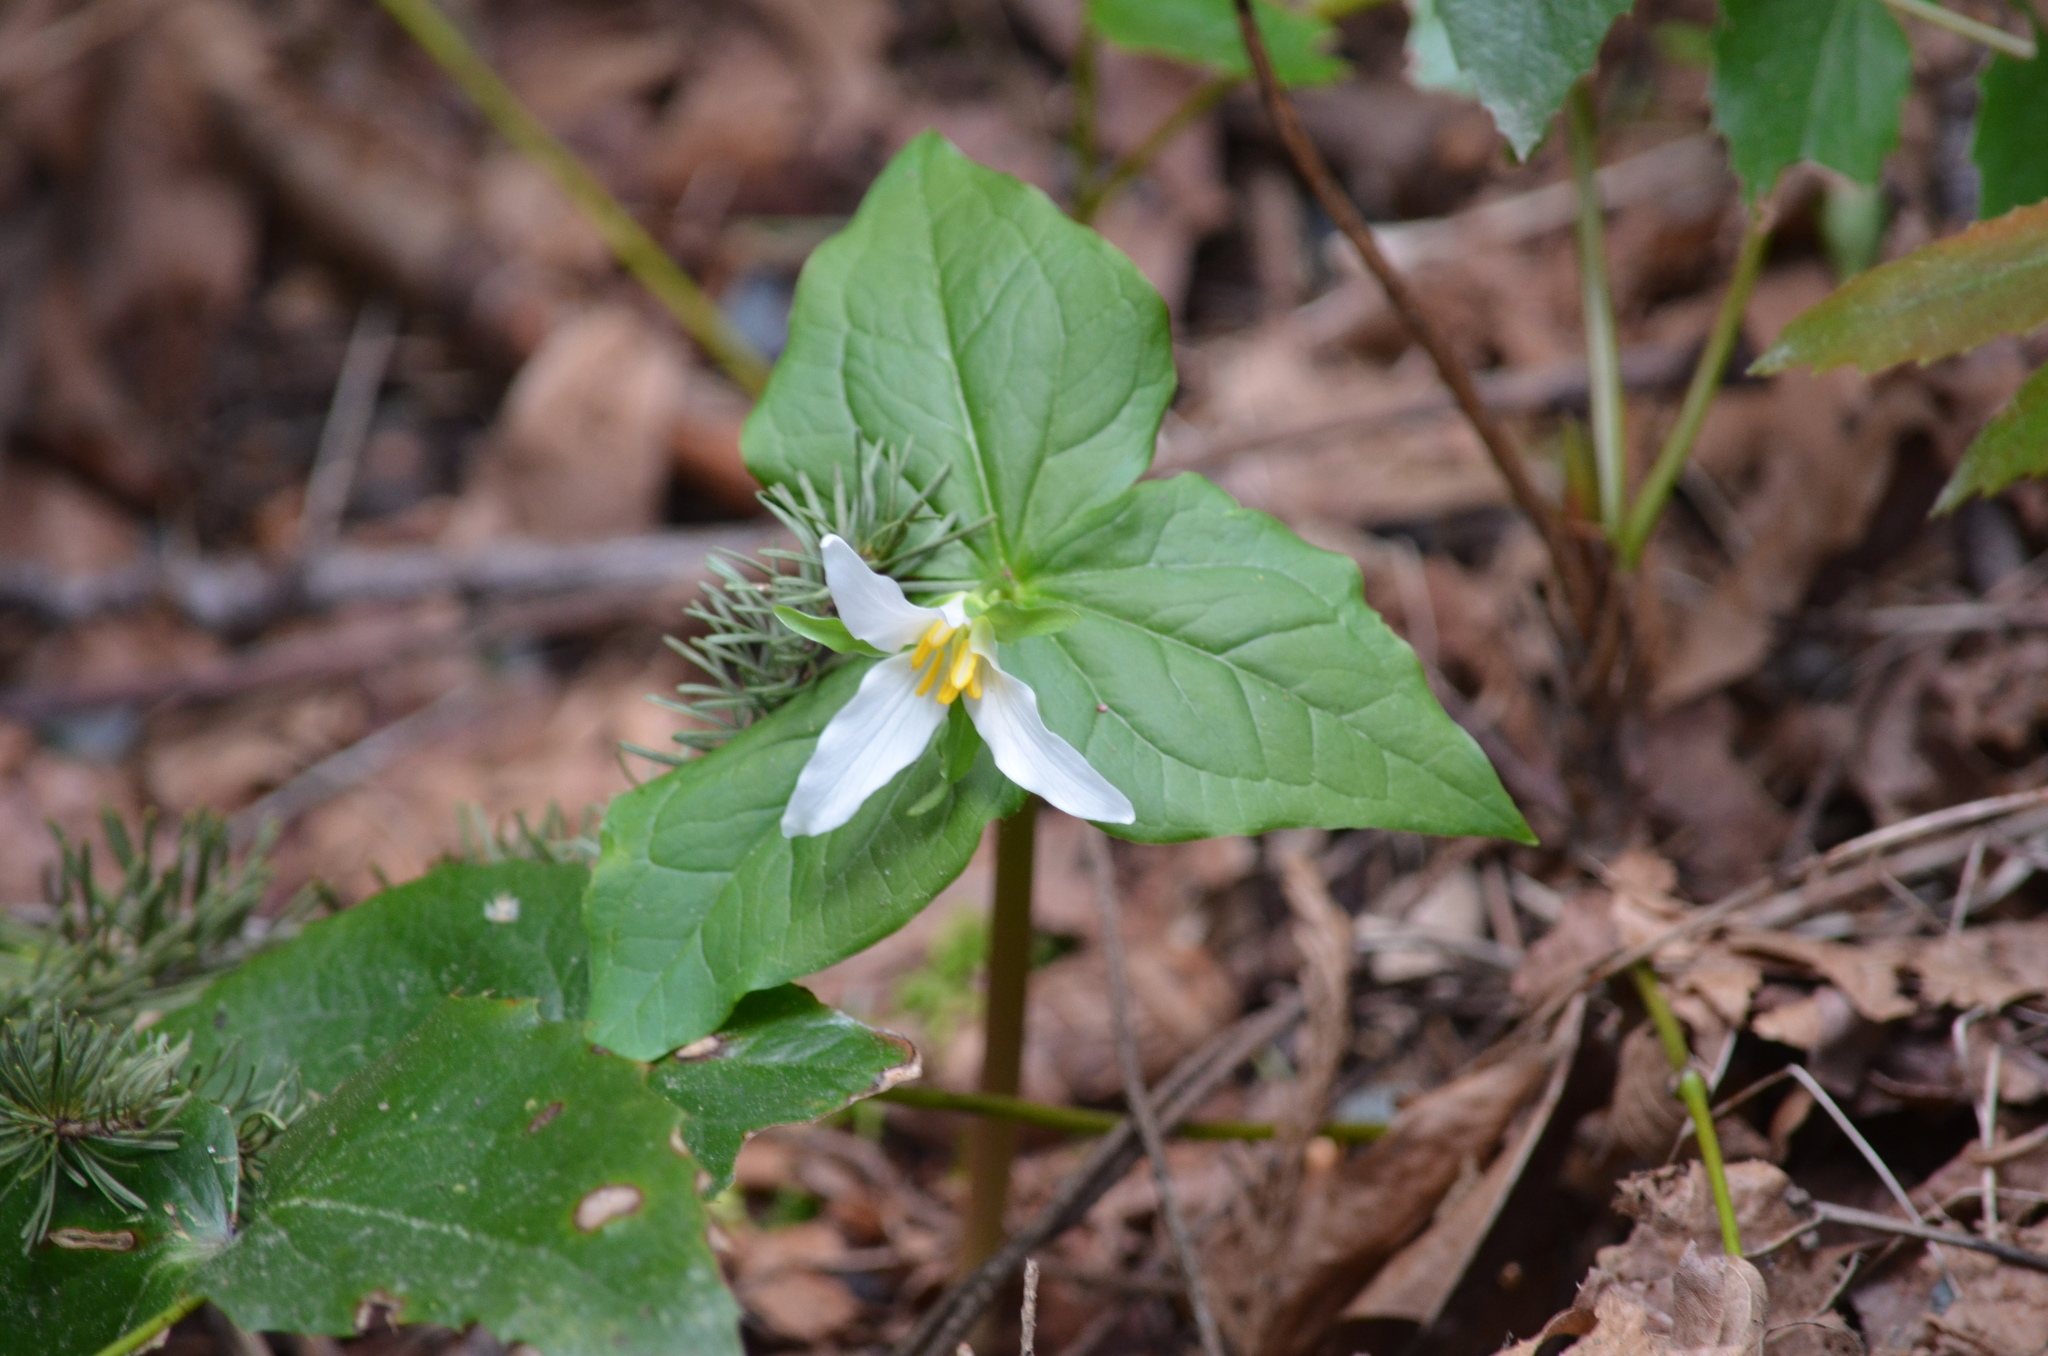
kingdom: Plantae
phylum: Tracheophyta
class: Liliopsida
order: Liliales
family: Melanthiaceae
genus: Trillium
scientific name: Trillium ovatum
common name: Pacific trillium
